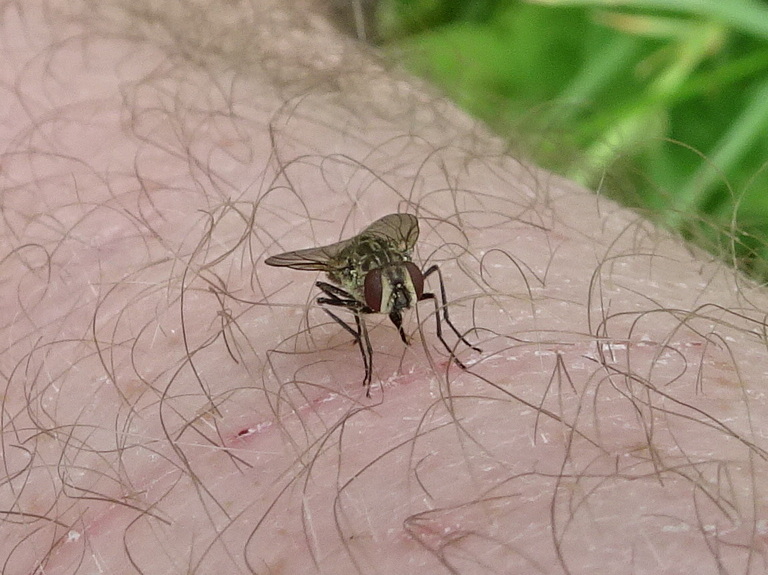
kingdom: Animalia
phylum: Arthropoda
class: Insecta
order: Diptera
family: Muscidae
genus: Stomoxys
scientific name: Stomoxys calcitrans
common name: Stable fly
